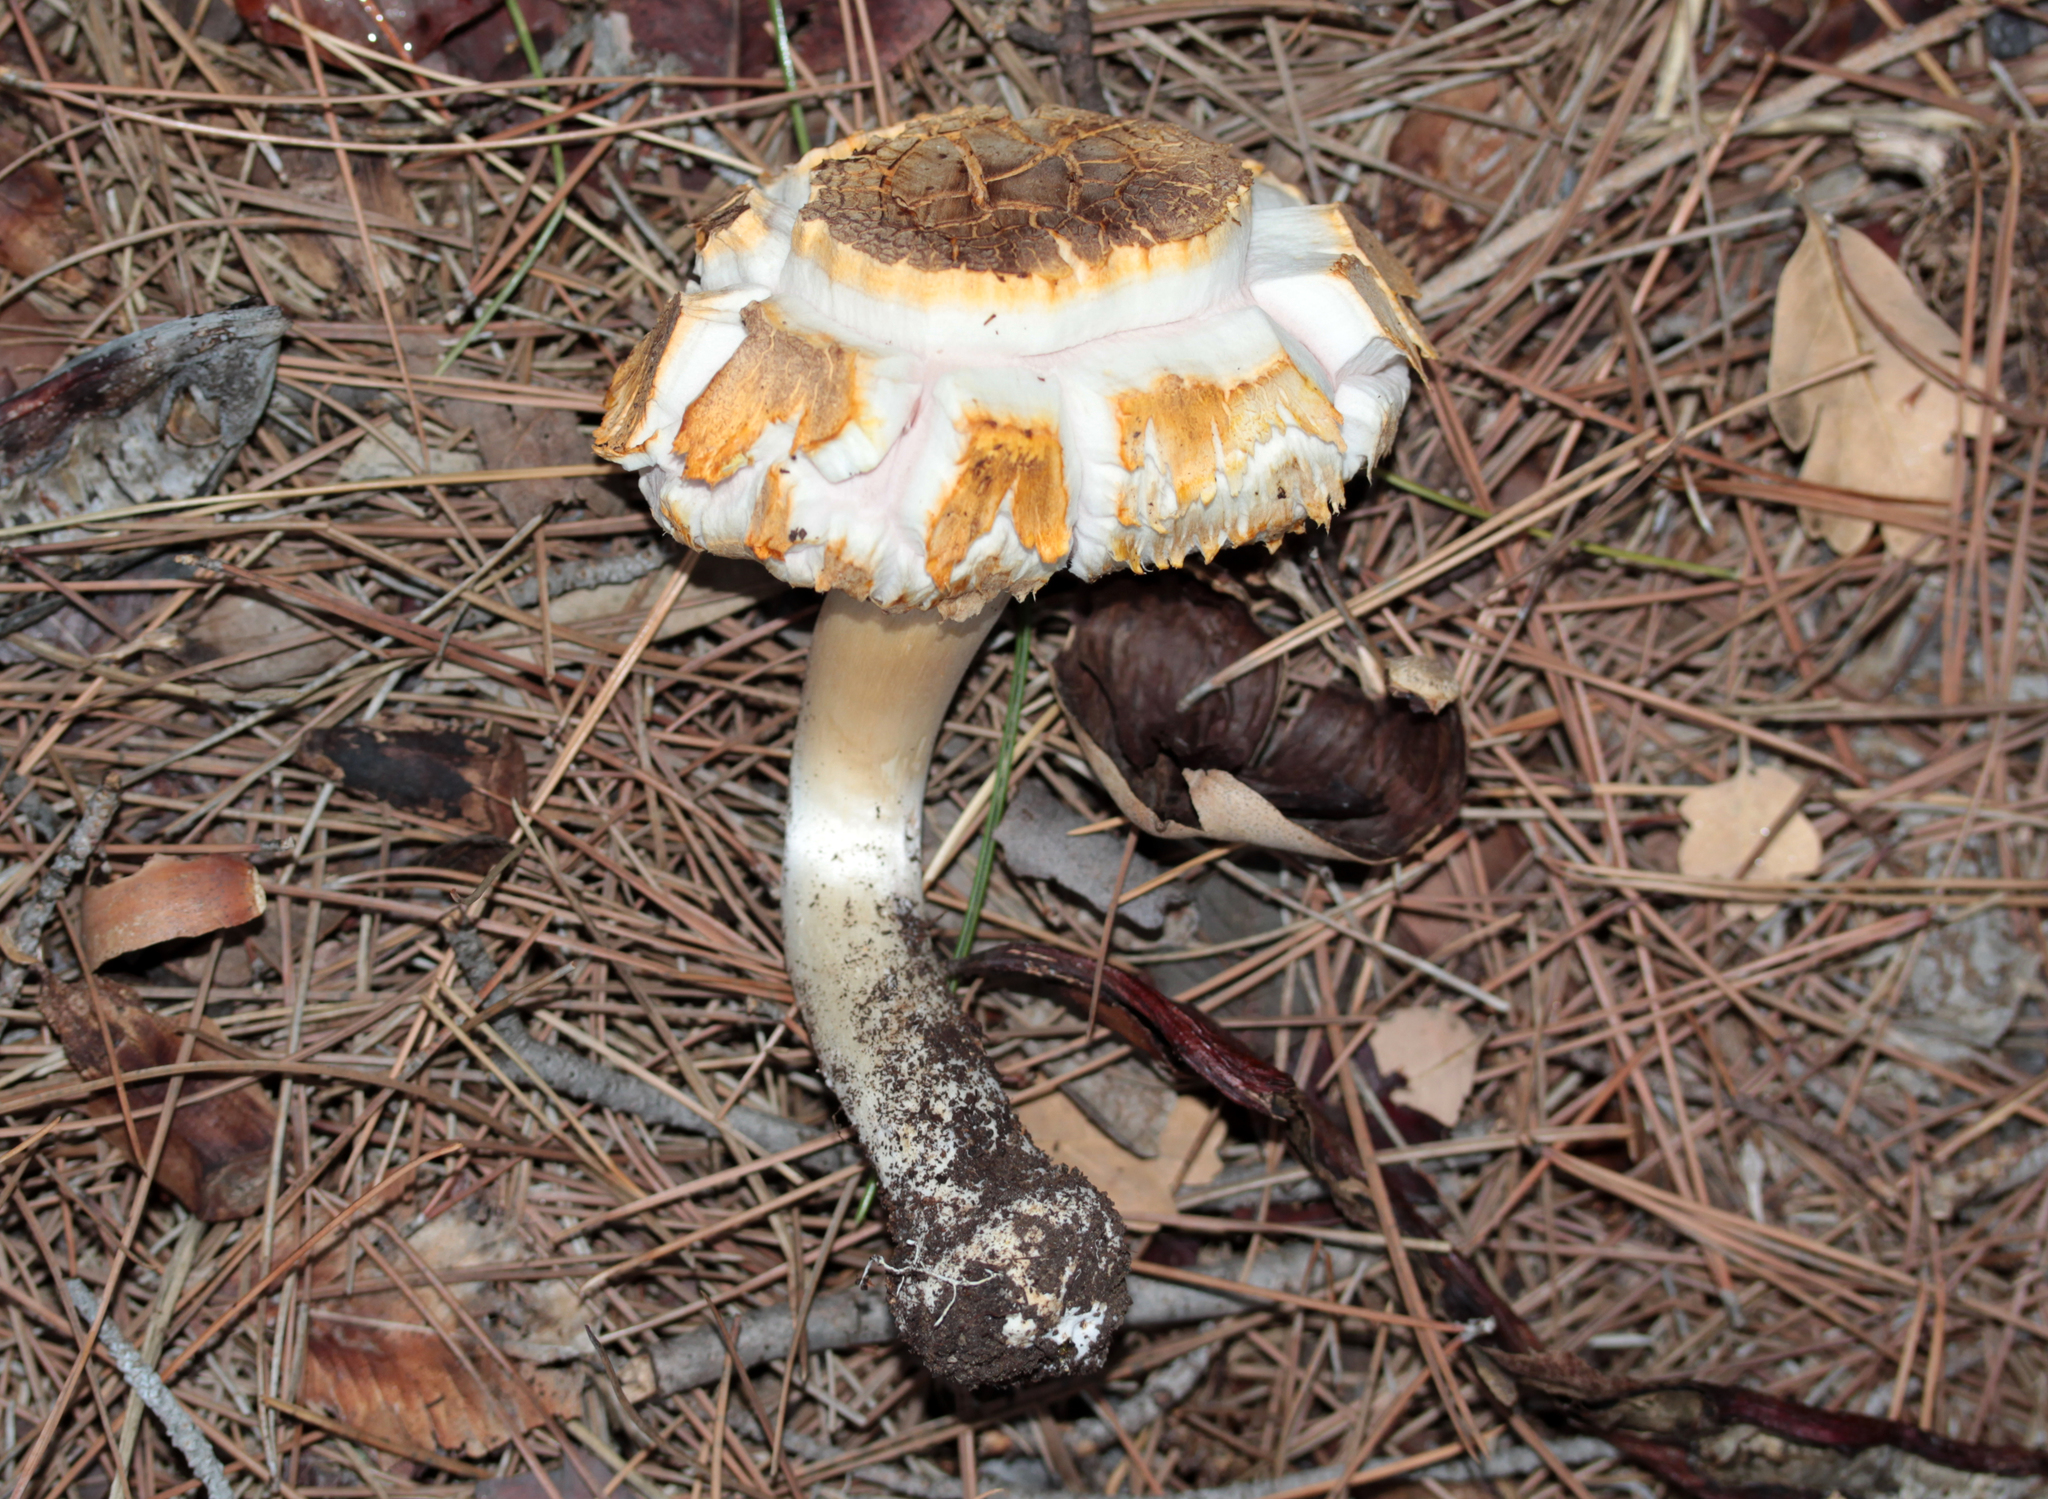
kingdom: Fungi
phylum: Basidiomycota
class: Agaricomycetes
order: Agaricales
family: Agaricaceae
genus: Agaricus
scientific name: Agaricus xanthodermus
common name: Yellow stainer
